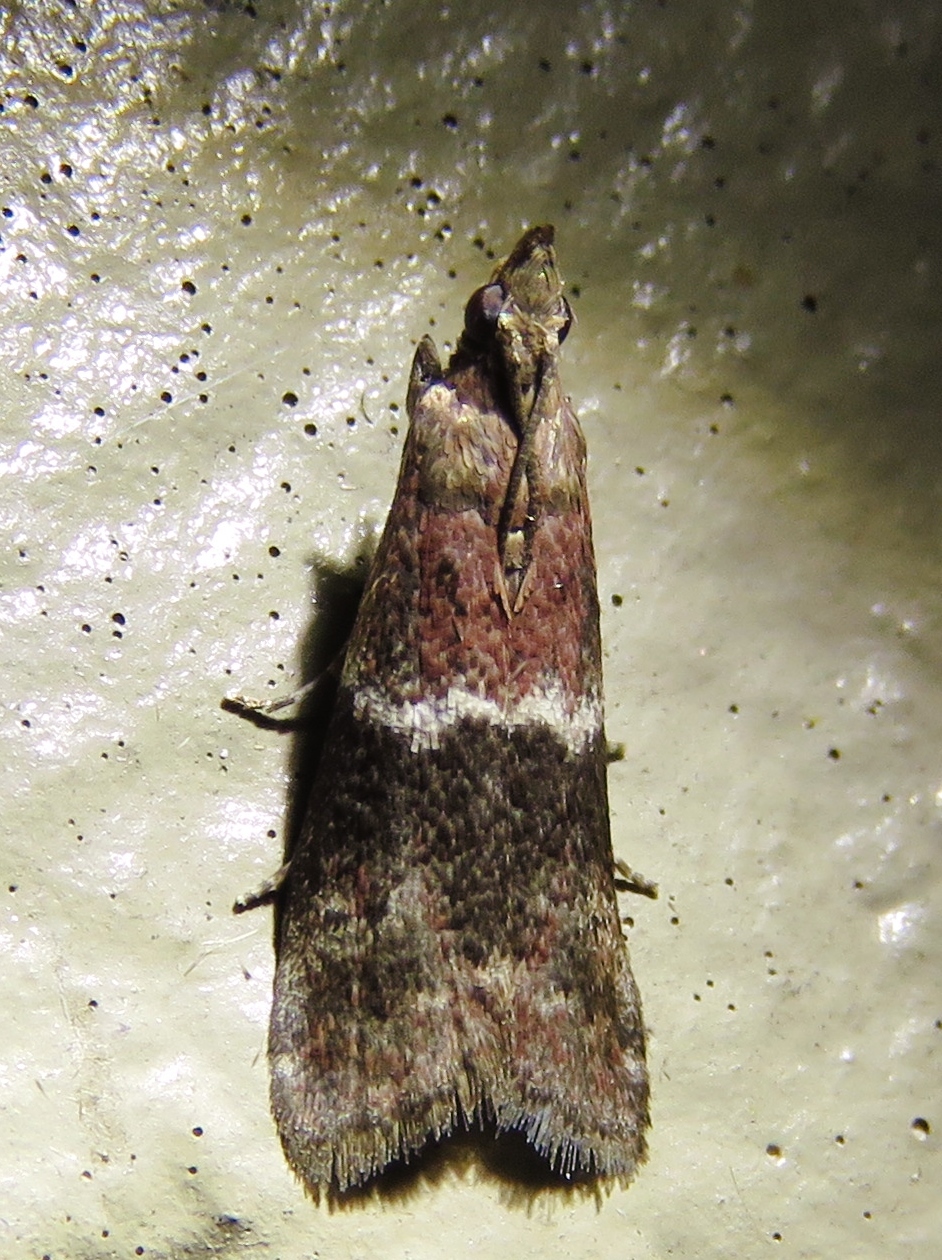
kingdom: Animalia
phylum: Arthropoda
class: Insecta
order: Lepidoptera
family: Pyralidae
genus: Moodna
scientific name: Moodna ostrinella
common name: Darker moodna moth
